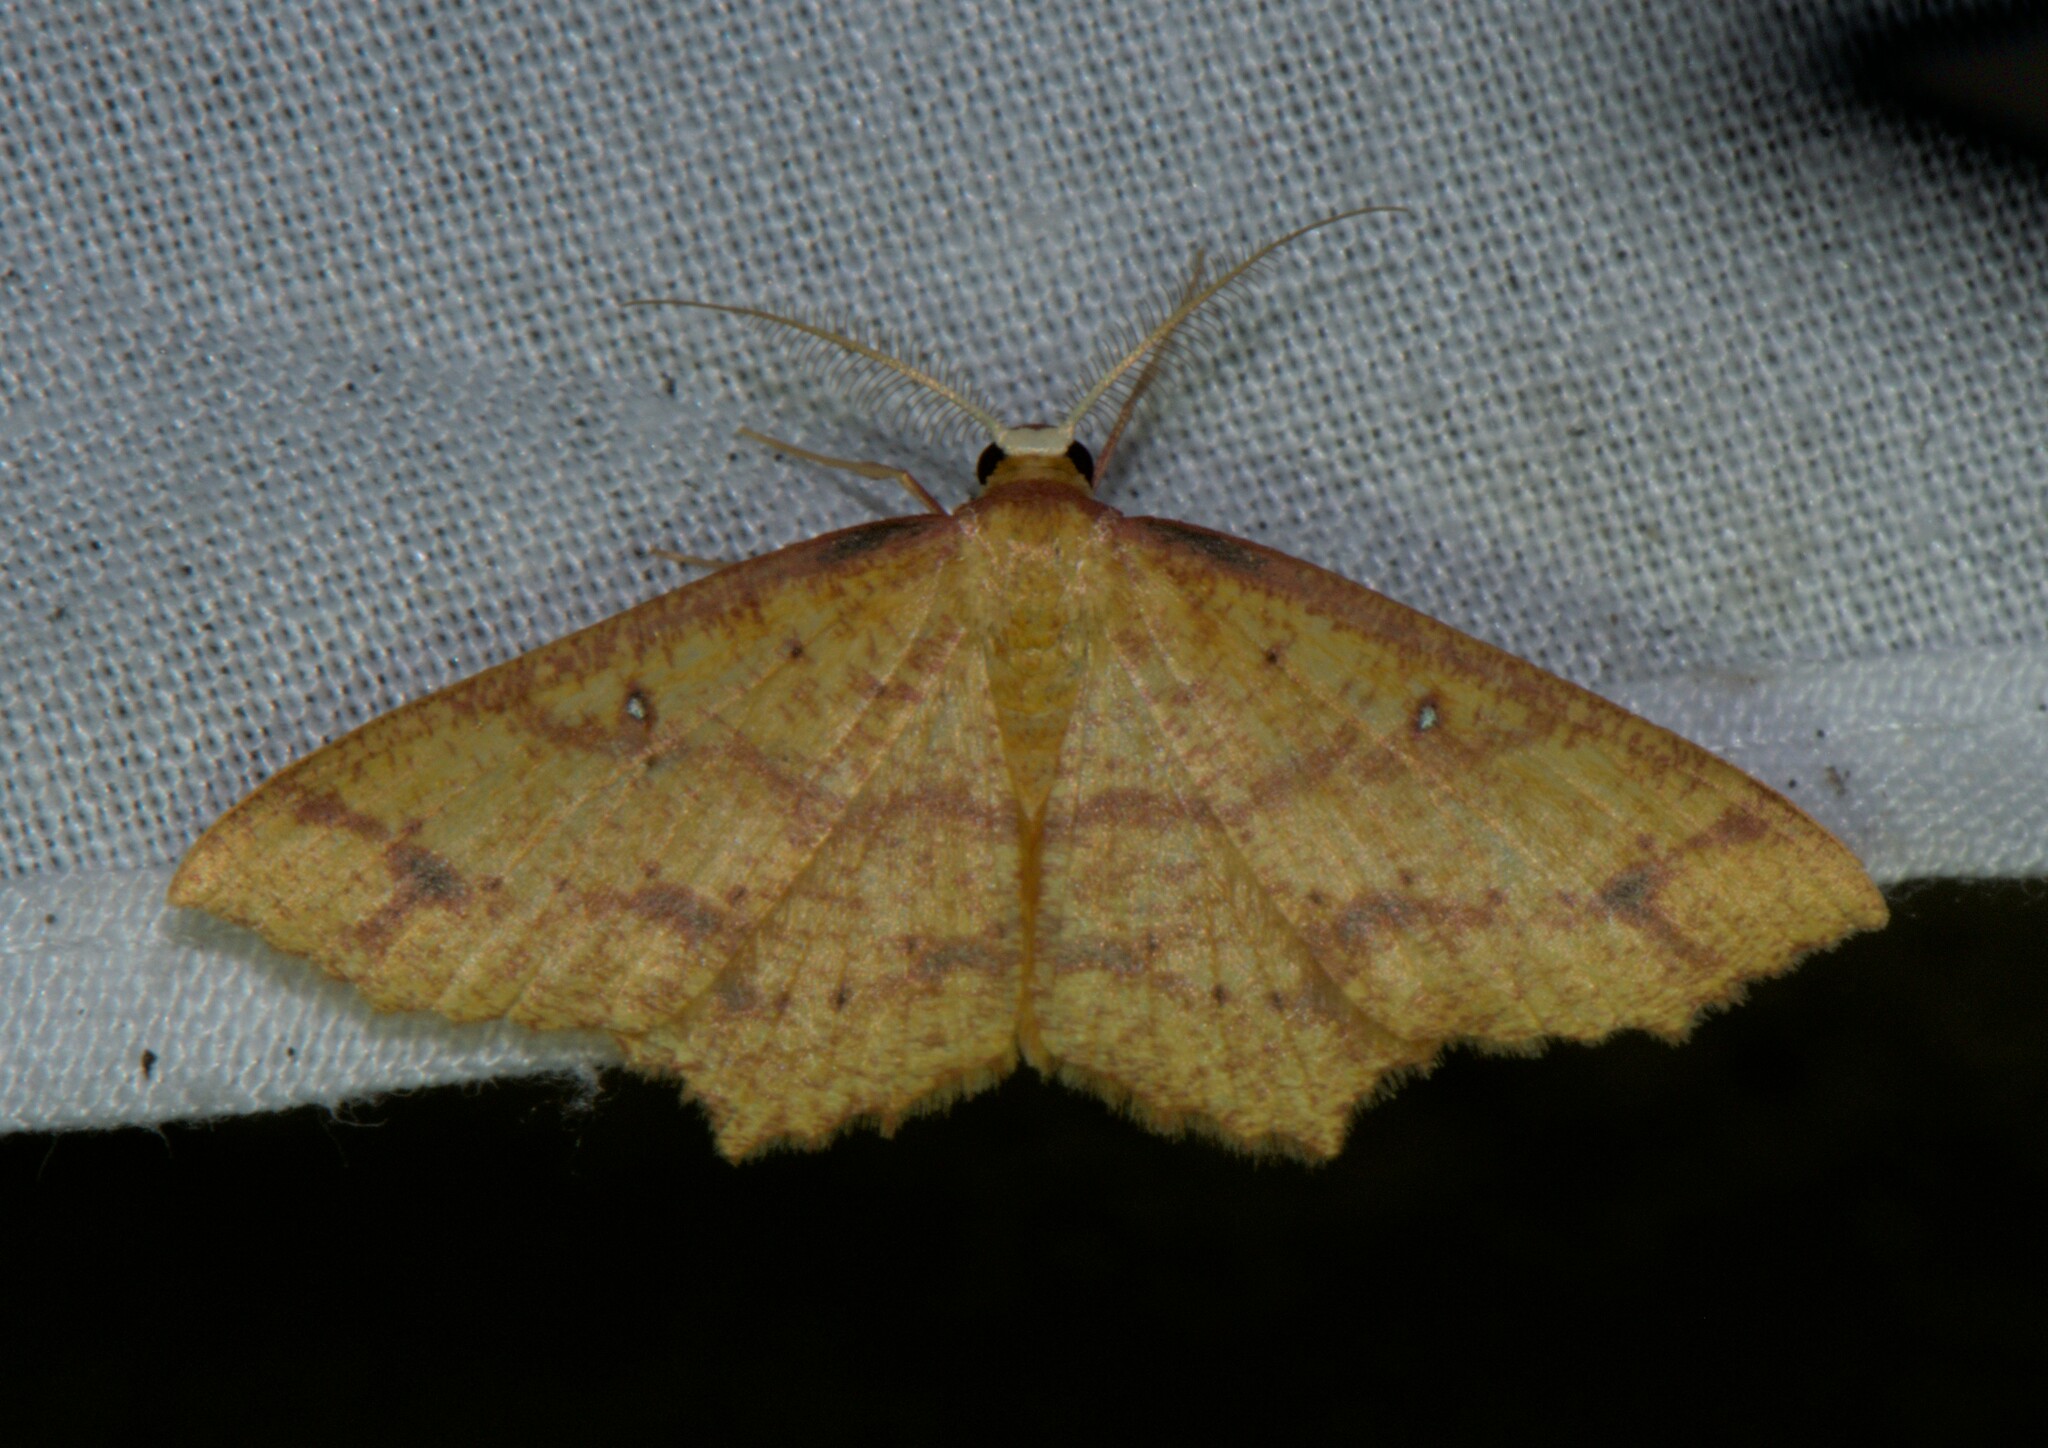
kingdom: Animalia
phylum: Arthropoda
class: Insecta
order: Lepidoptera
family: Geometridae
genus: Synegiodes
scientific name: Synegiodes hyriaria
